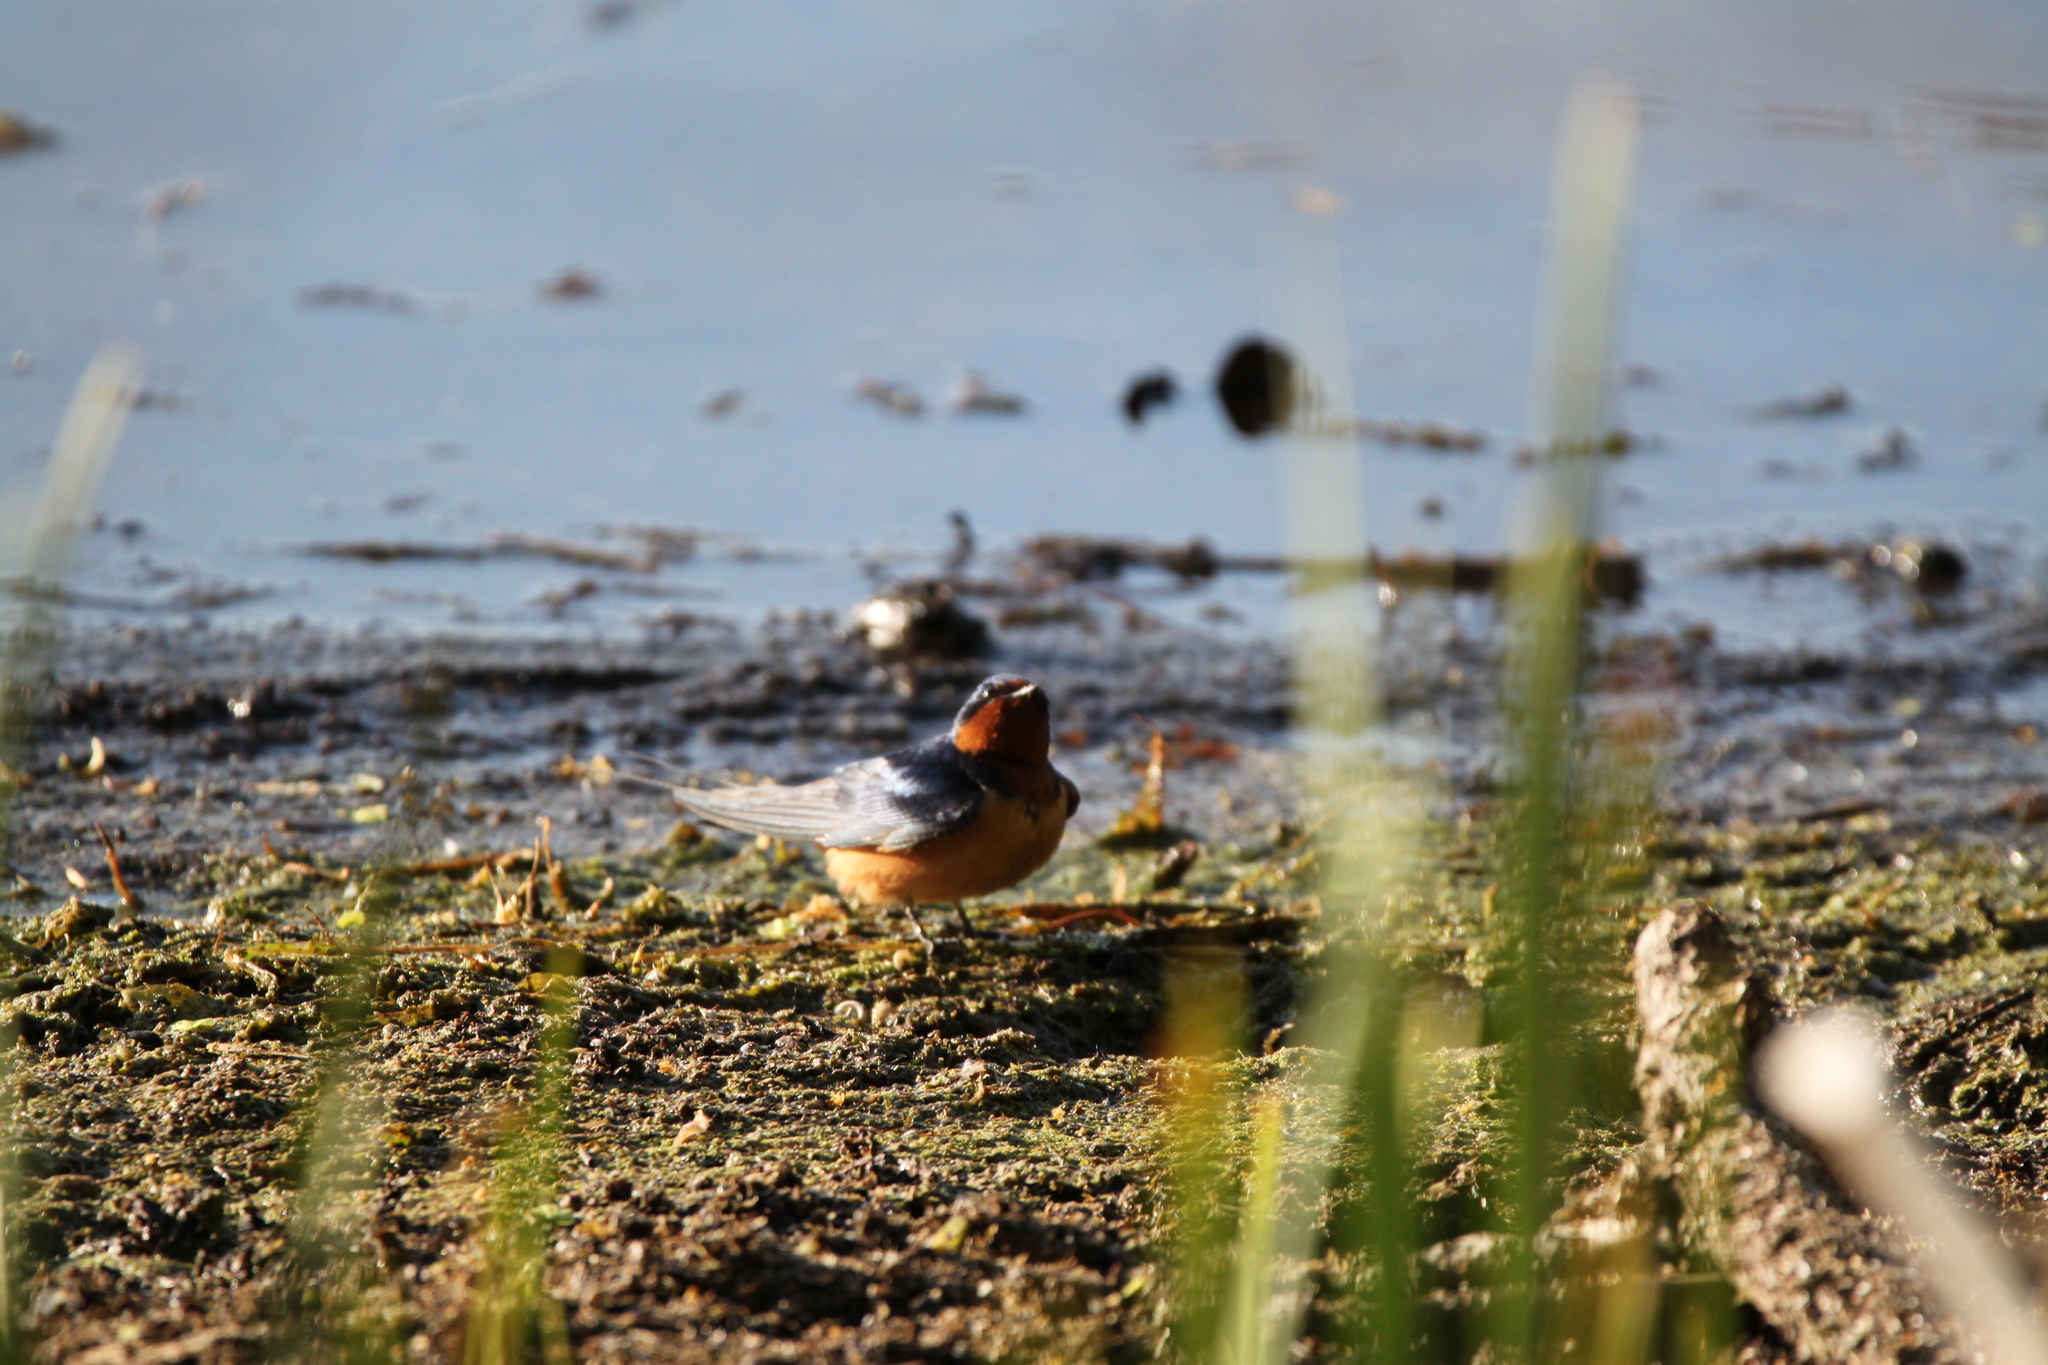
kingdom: Animalia
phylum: Chordata
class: Aves
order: Passeriformes
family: Hirundinidae
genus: Hirundo
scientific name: Hirundo rustica
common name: Barn swallow
